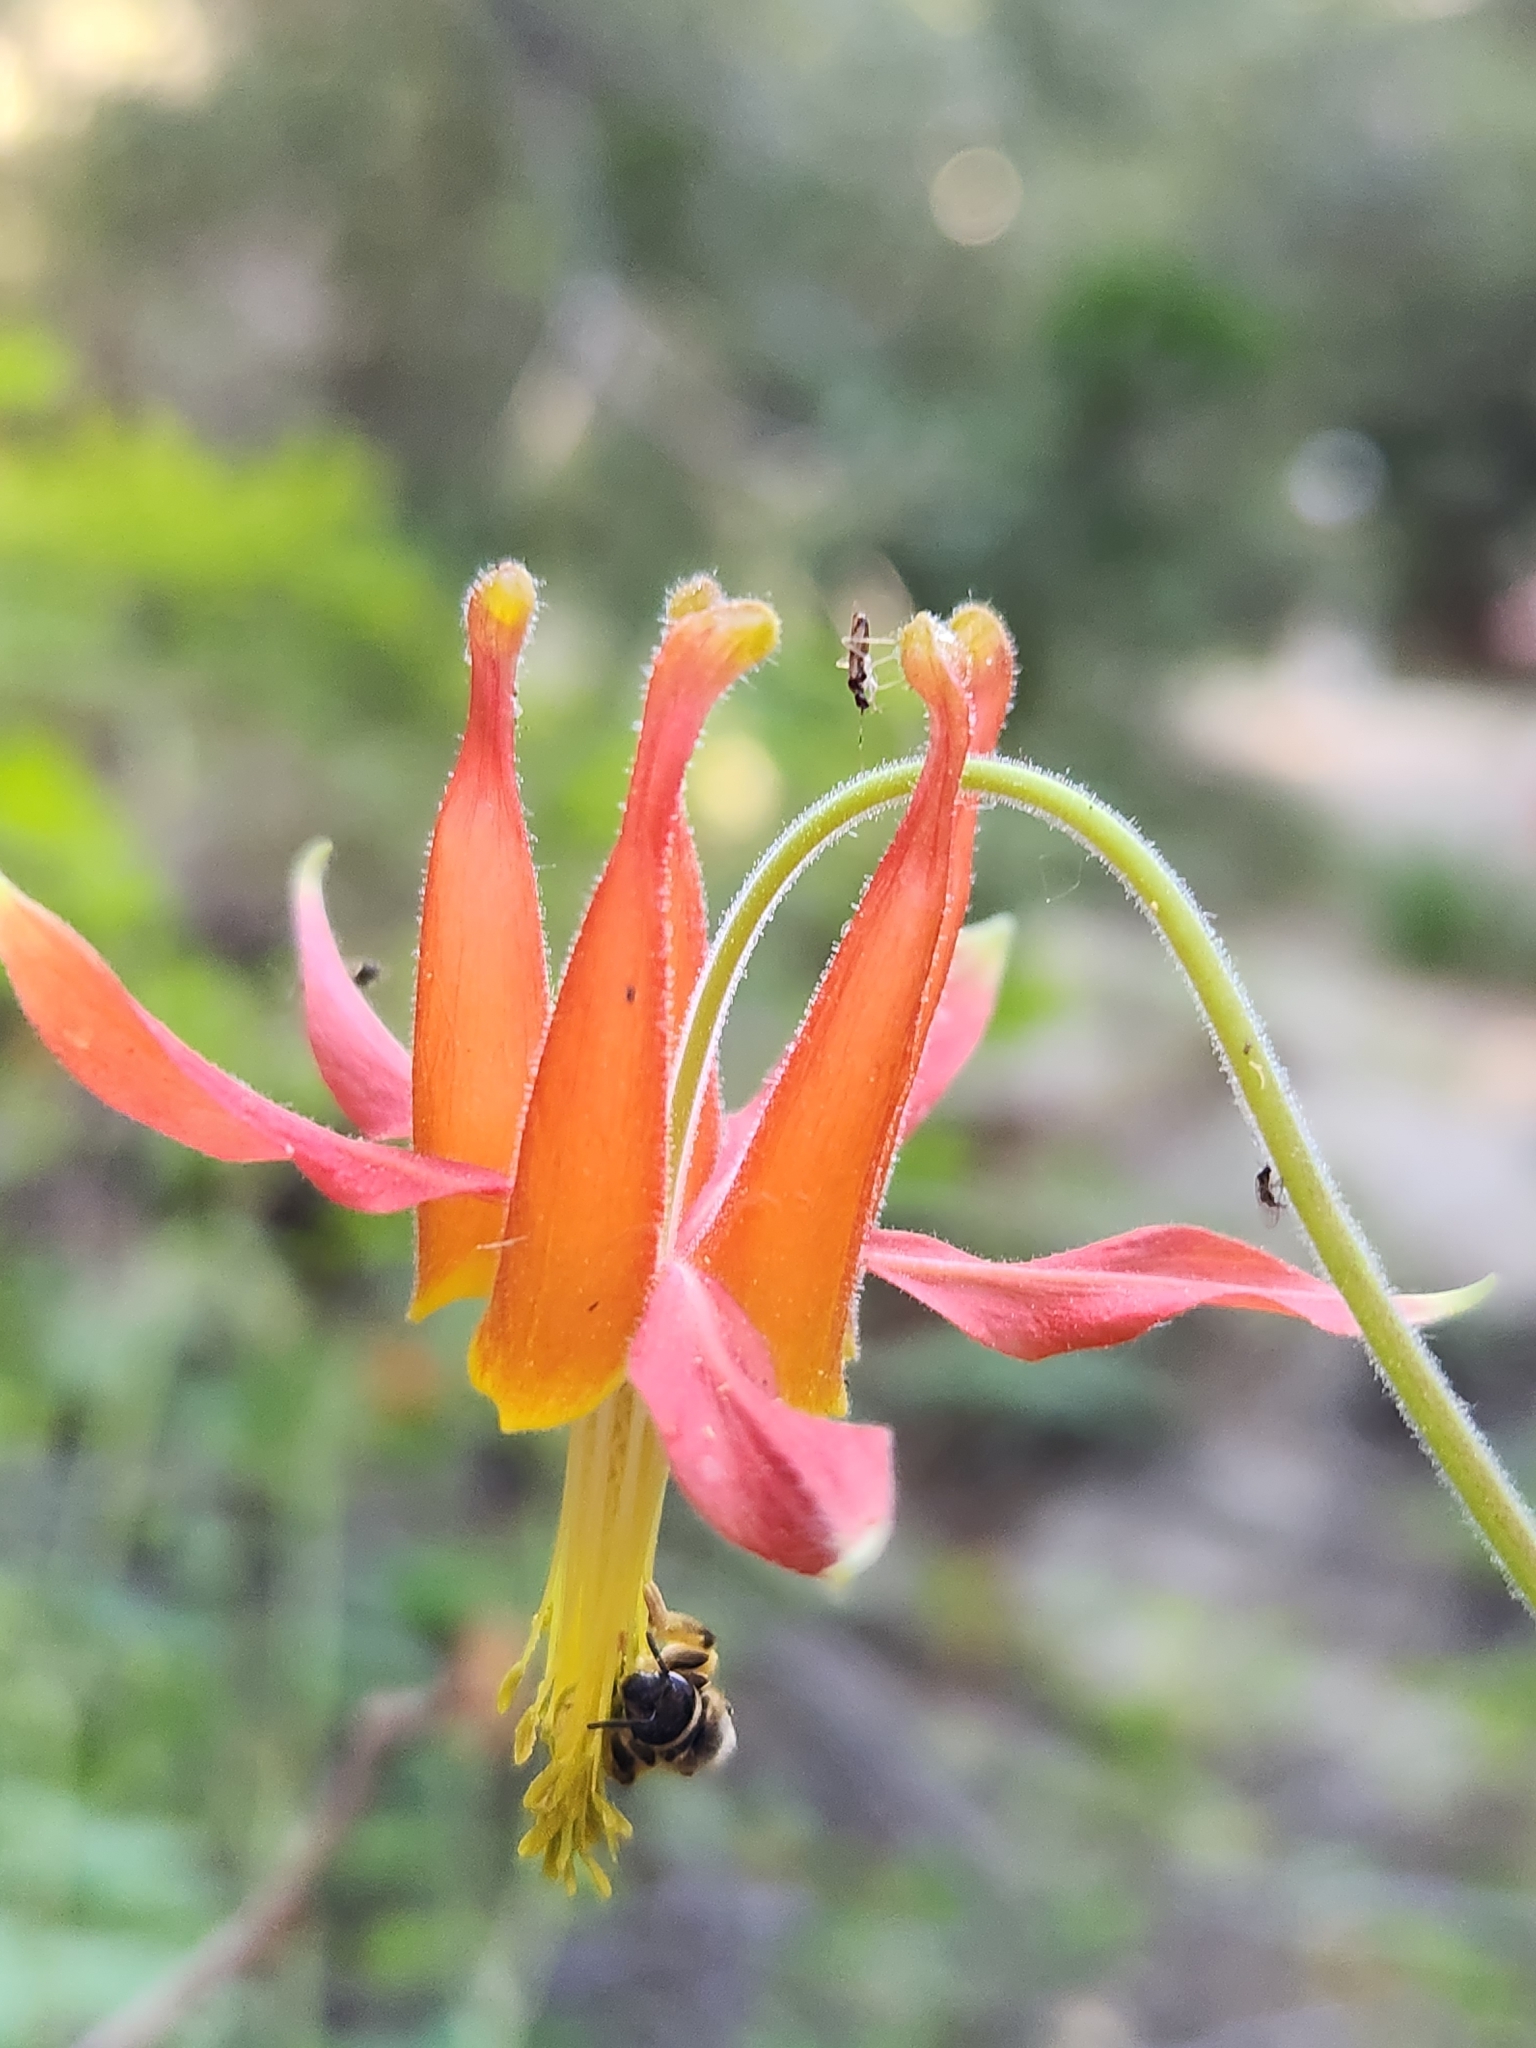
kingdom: Plantae
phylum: Tracheophyta
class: Magnoliopsida
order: Ranunculales
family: Ranunculaceae
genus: Aquilegia
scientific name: Aquilegia formosa
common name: Sitka columbine
